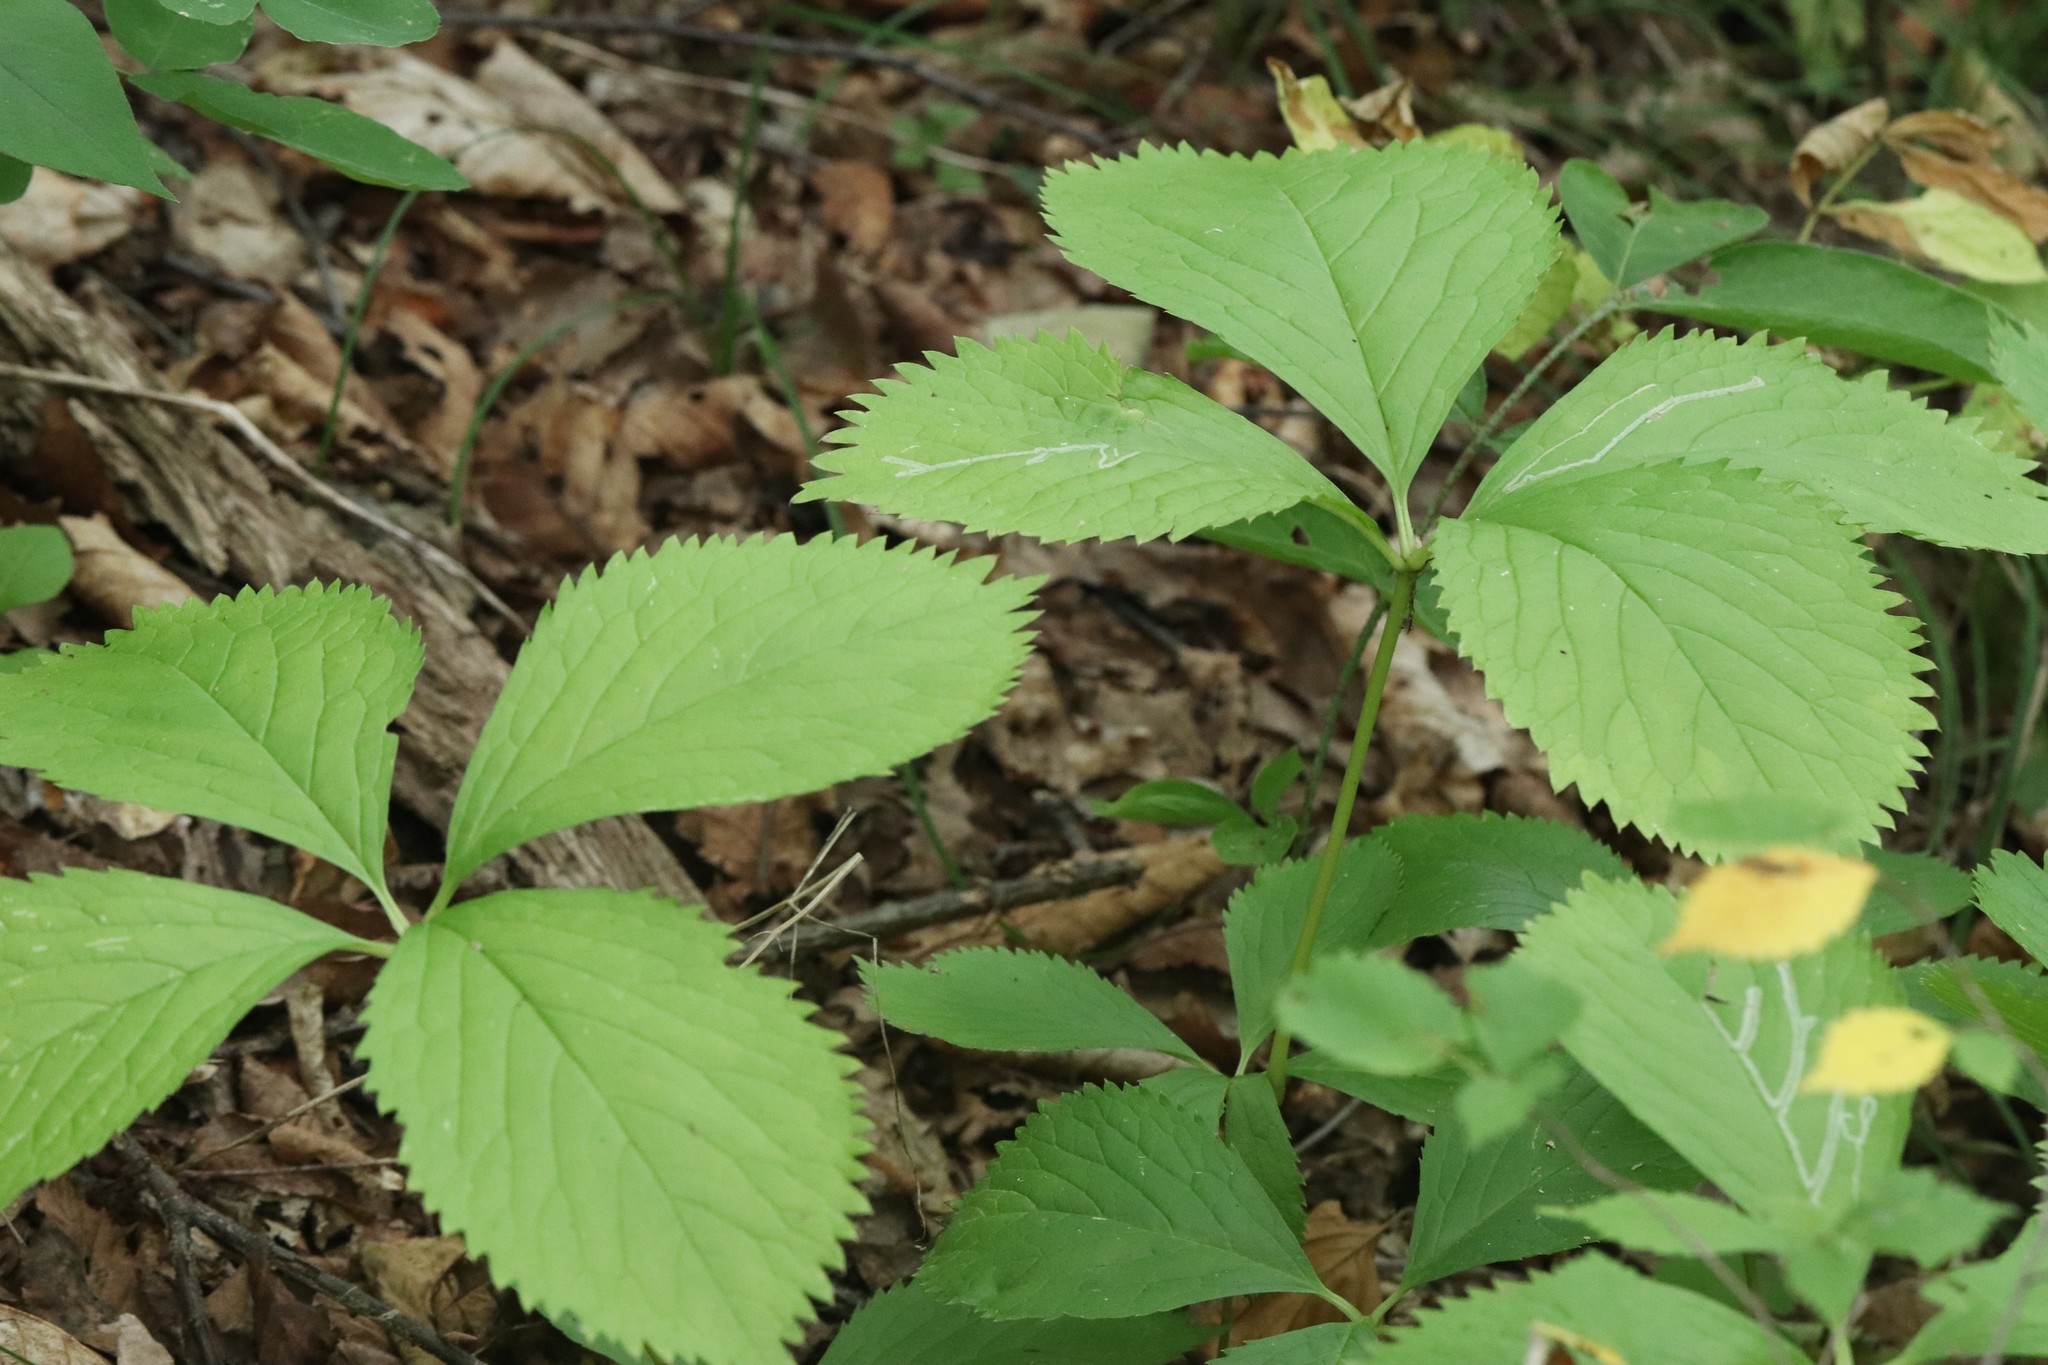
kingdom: Plantae
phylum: Tracheophyta
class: Magnoliopsida
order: Chloranthales
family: Chloranthaceae
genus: Chloranthus
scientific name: Chloranthus quadrifolius
